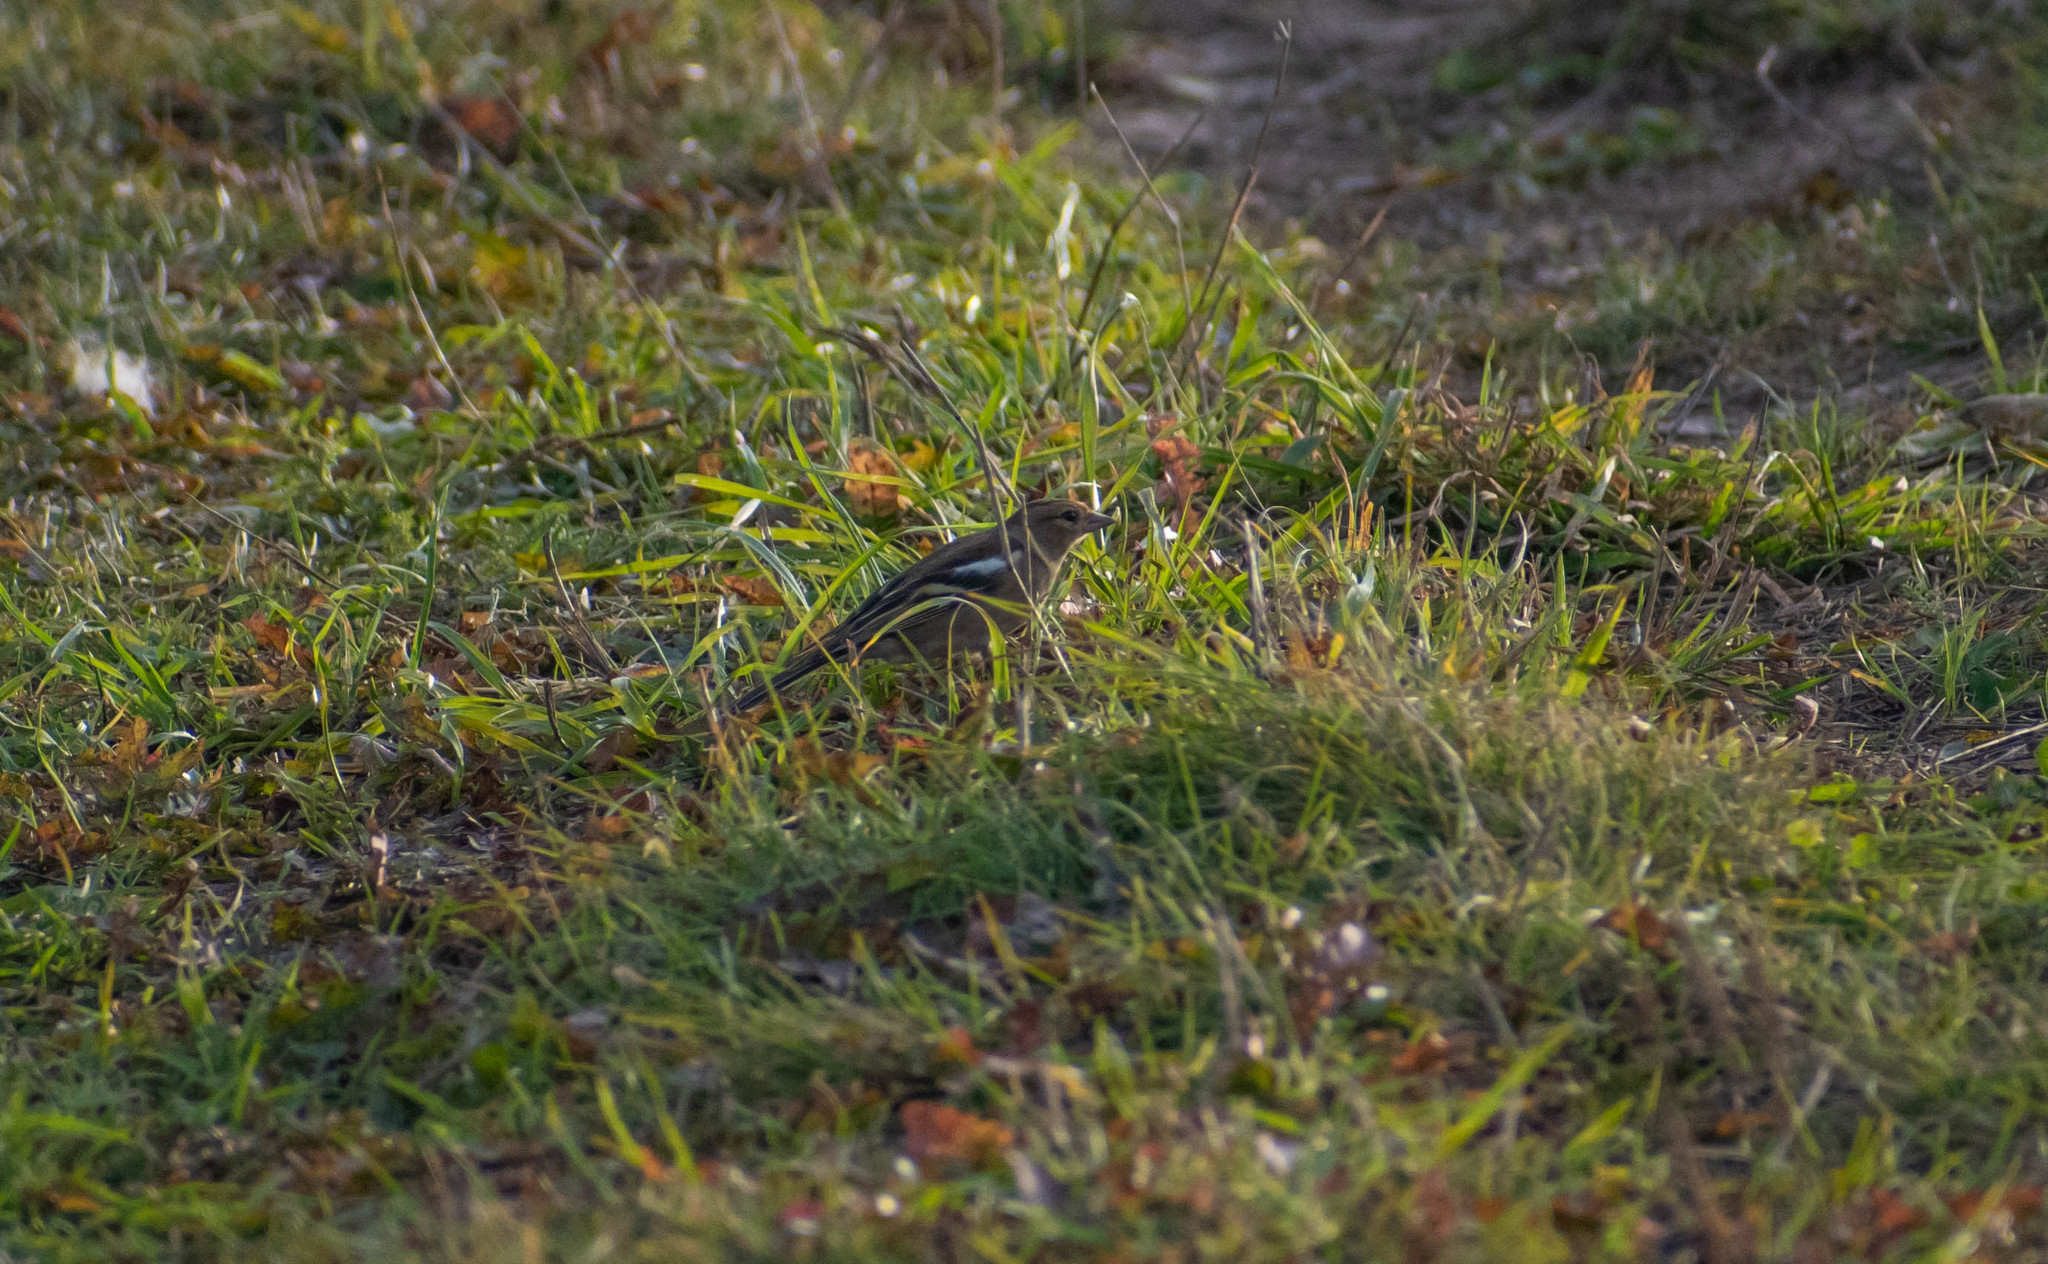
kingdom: Animalia
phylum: Chordata
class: Aves
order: Passeriformes
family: Fringillidae
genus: Fringilla
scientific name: Fringilla coelebs
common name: Common chaffinch
